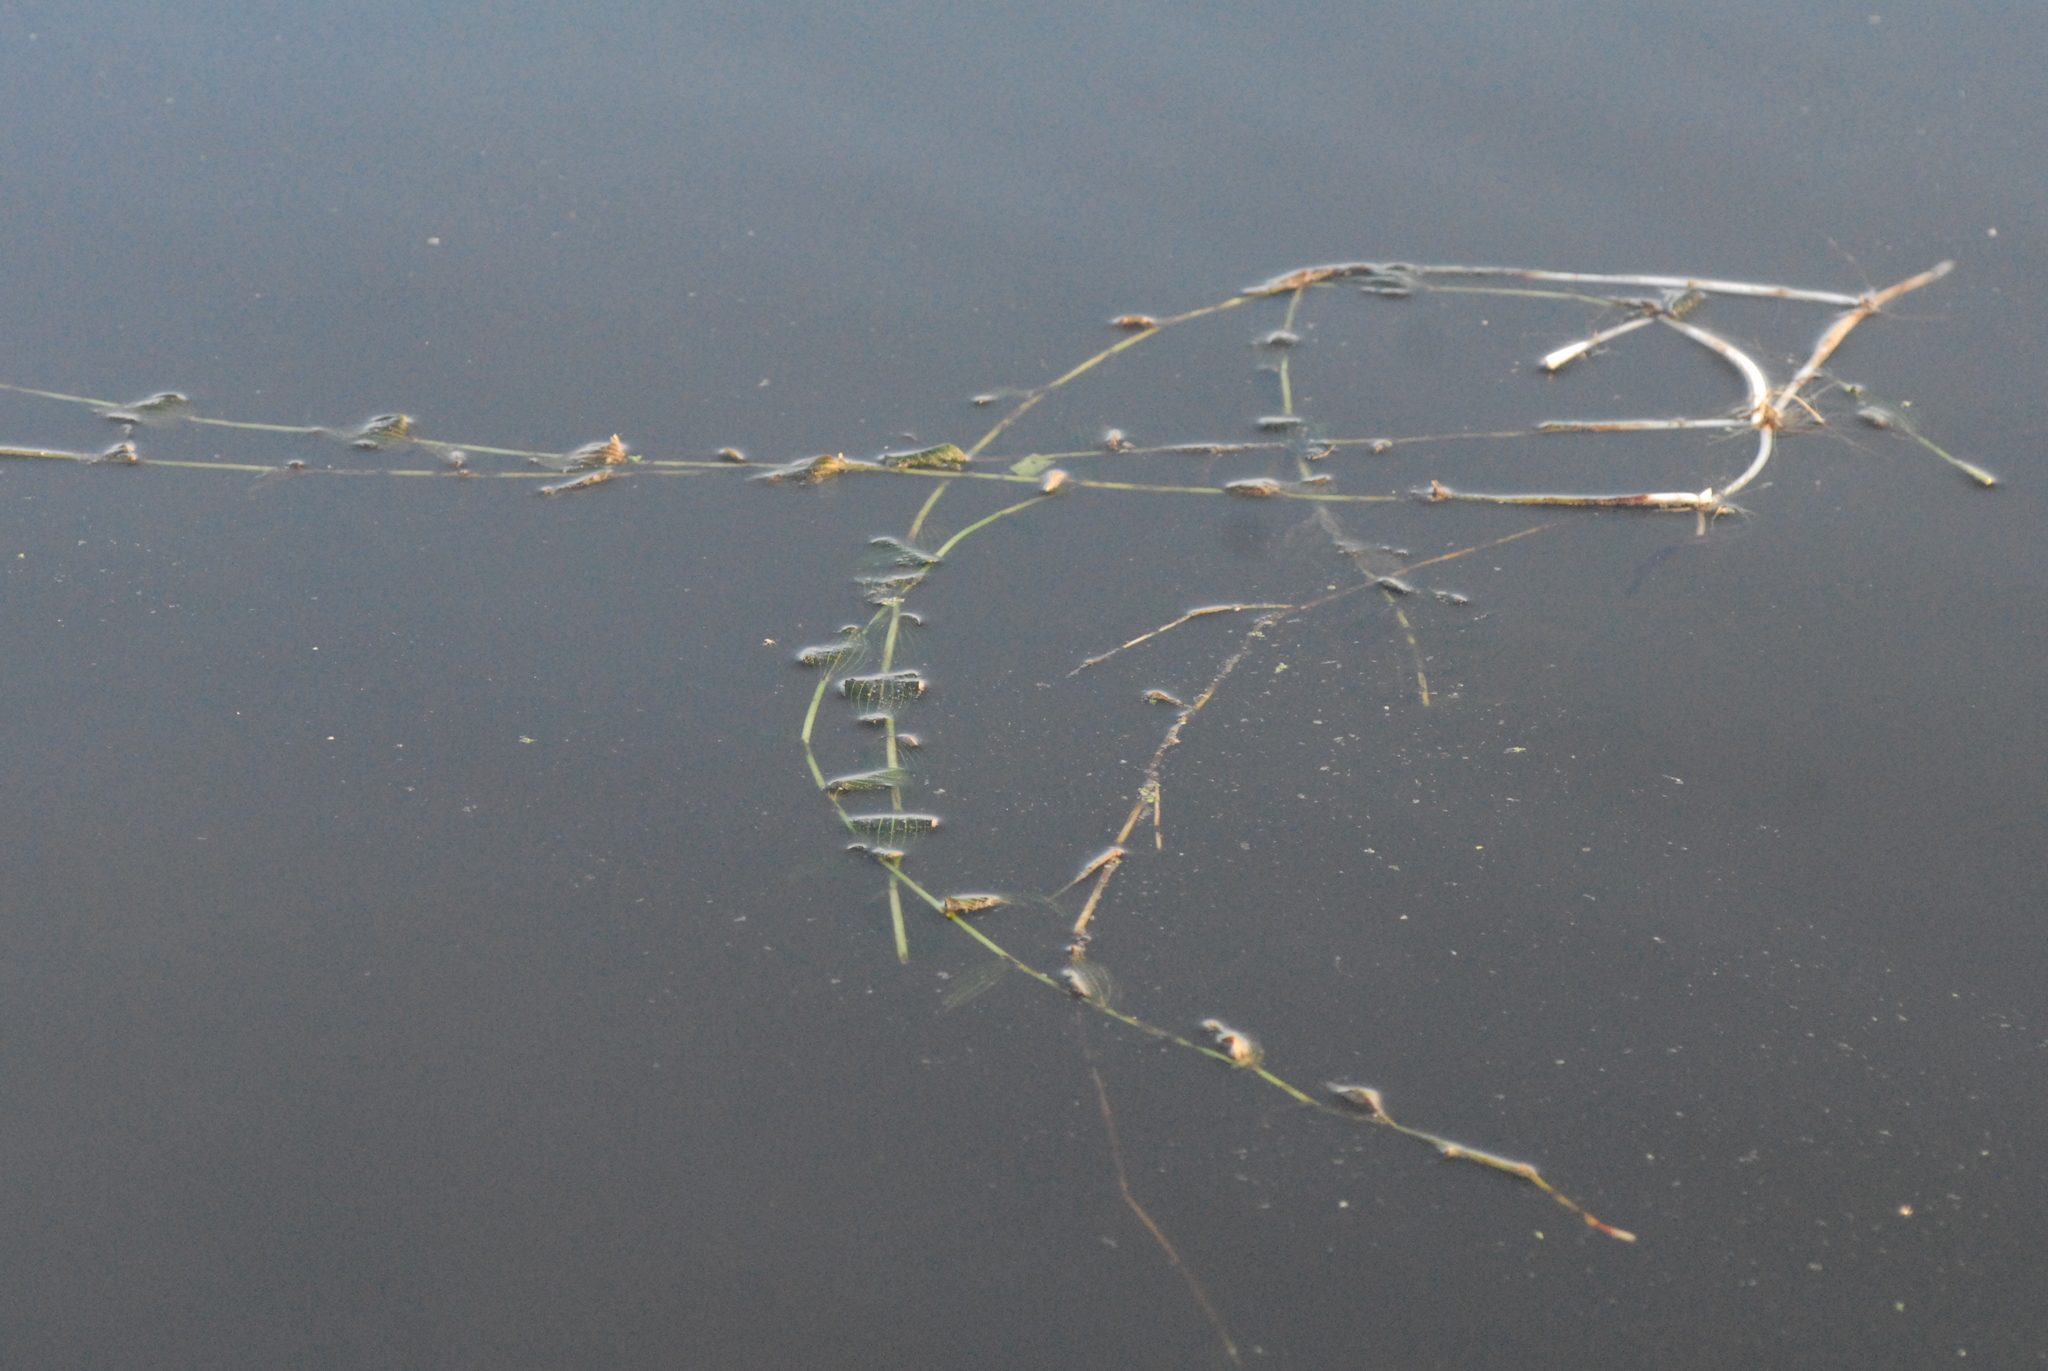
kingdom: Plantae
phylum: Tracheophyta
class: Liliopsida
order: Alismatales
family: Potamogetonaceae
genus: Potamogeton
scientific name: Potamogeton perfoliatus
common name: Perfoliate pondweed
